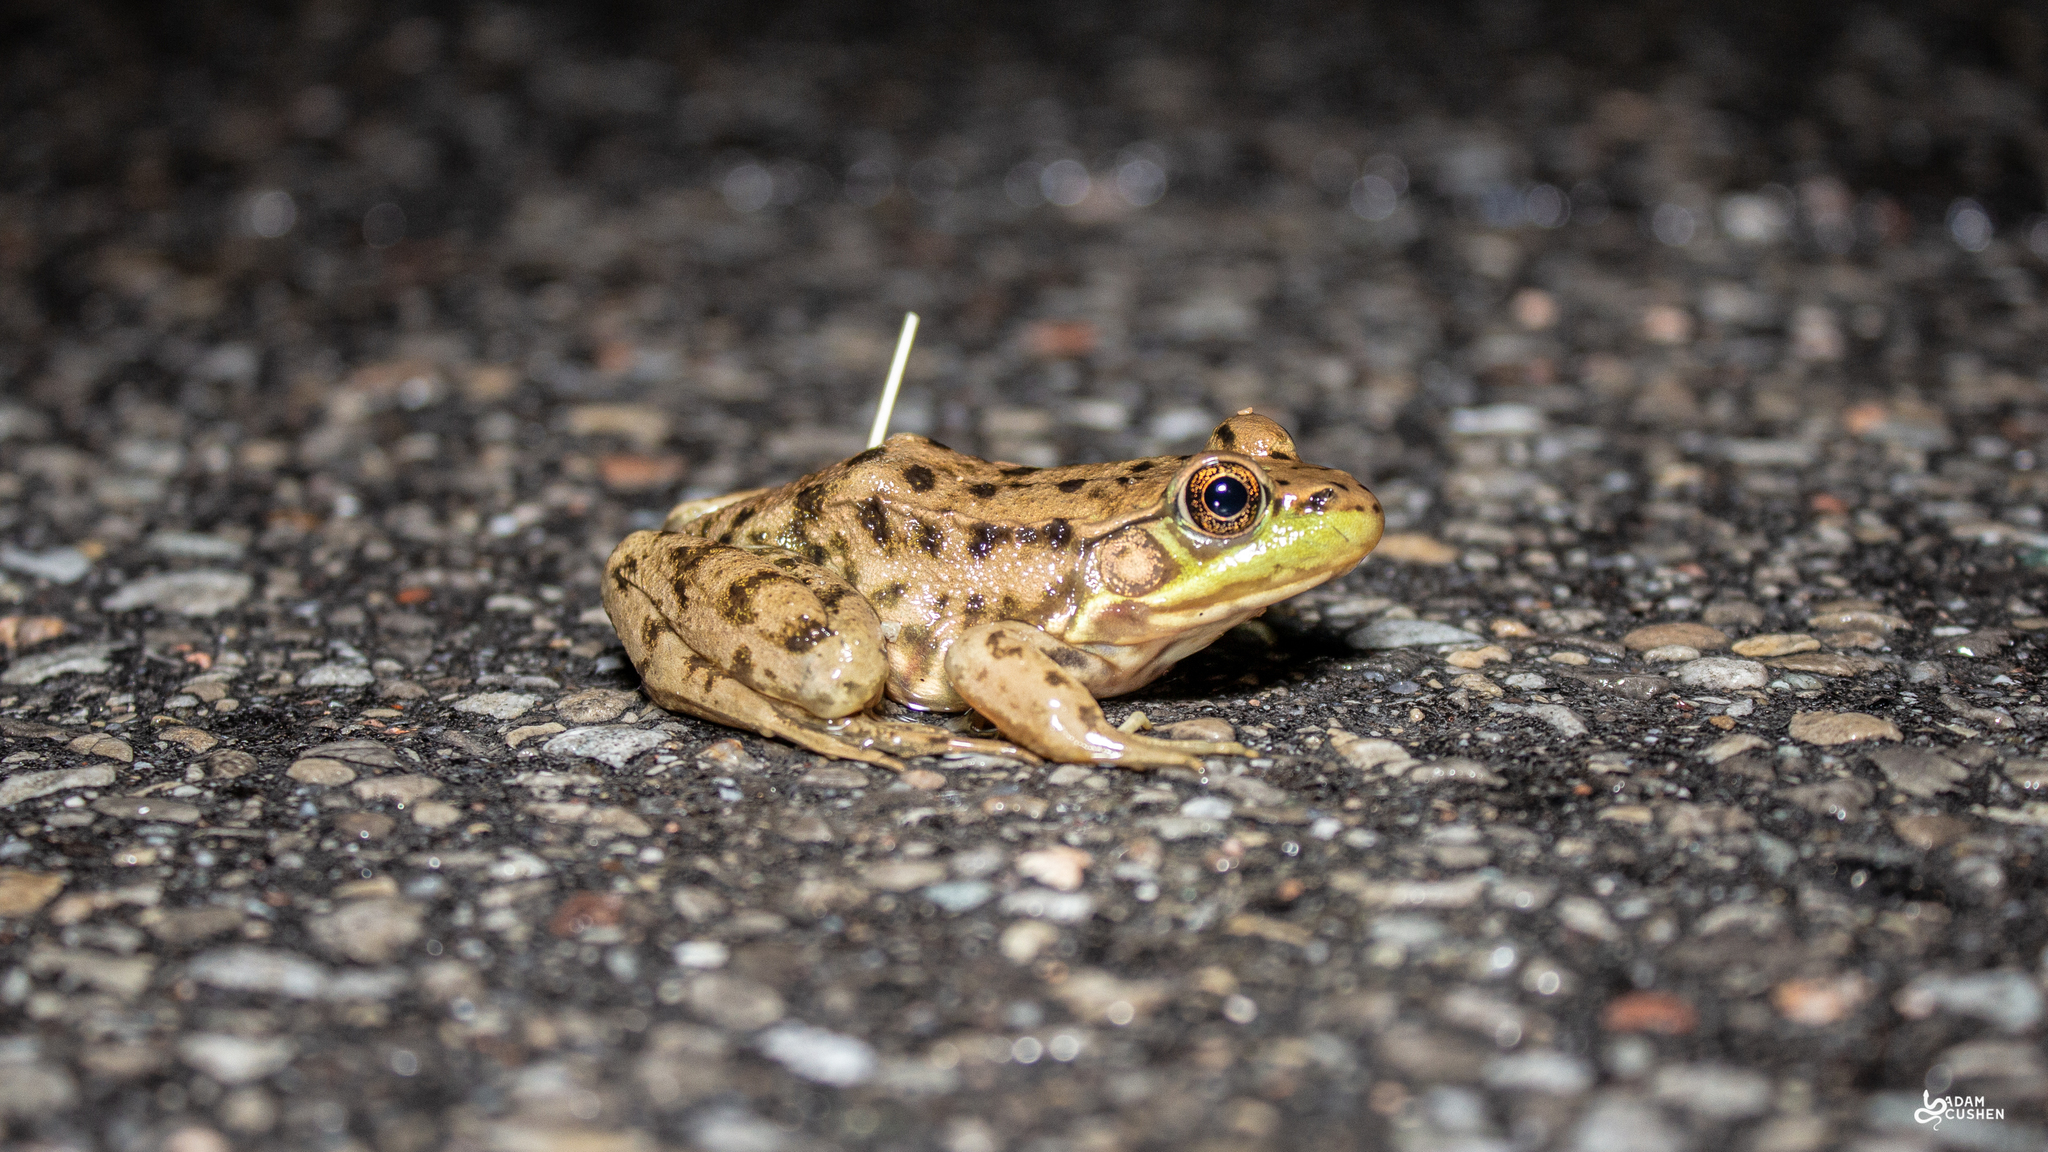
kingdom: Animalia
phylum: Chordata
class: Amphibia
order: Anura
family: Ranidae
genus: Lithobates
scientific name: Lithobates clamitans
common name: Green frog
